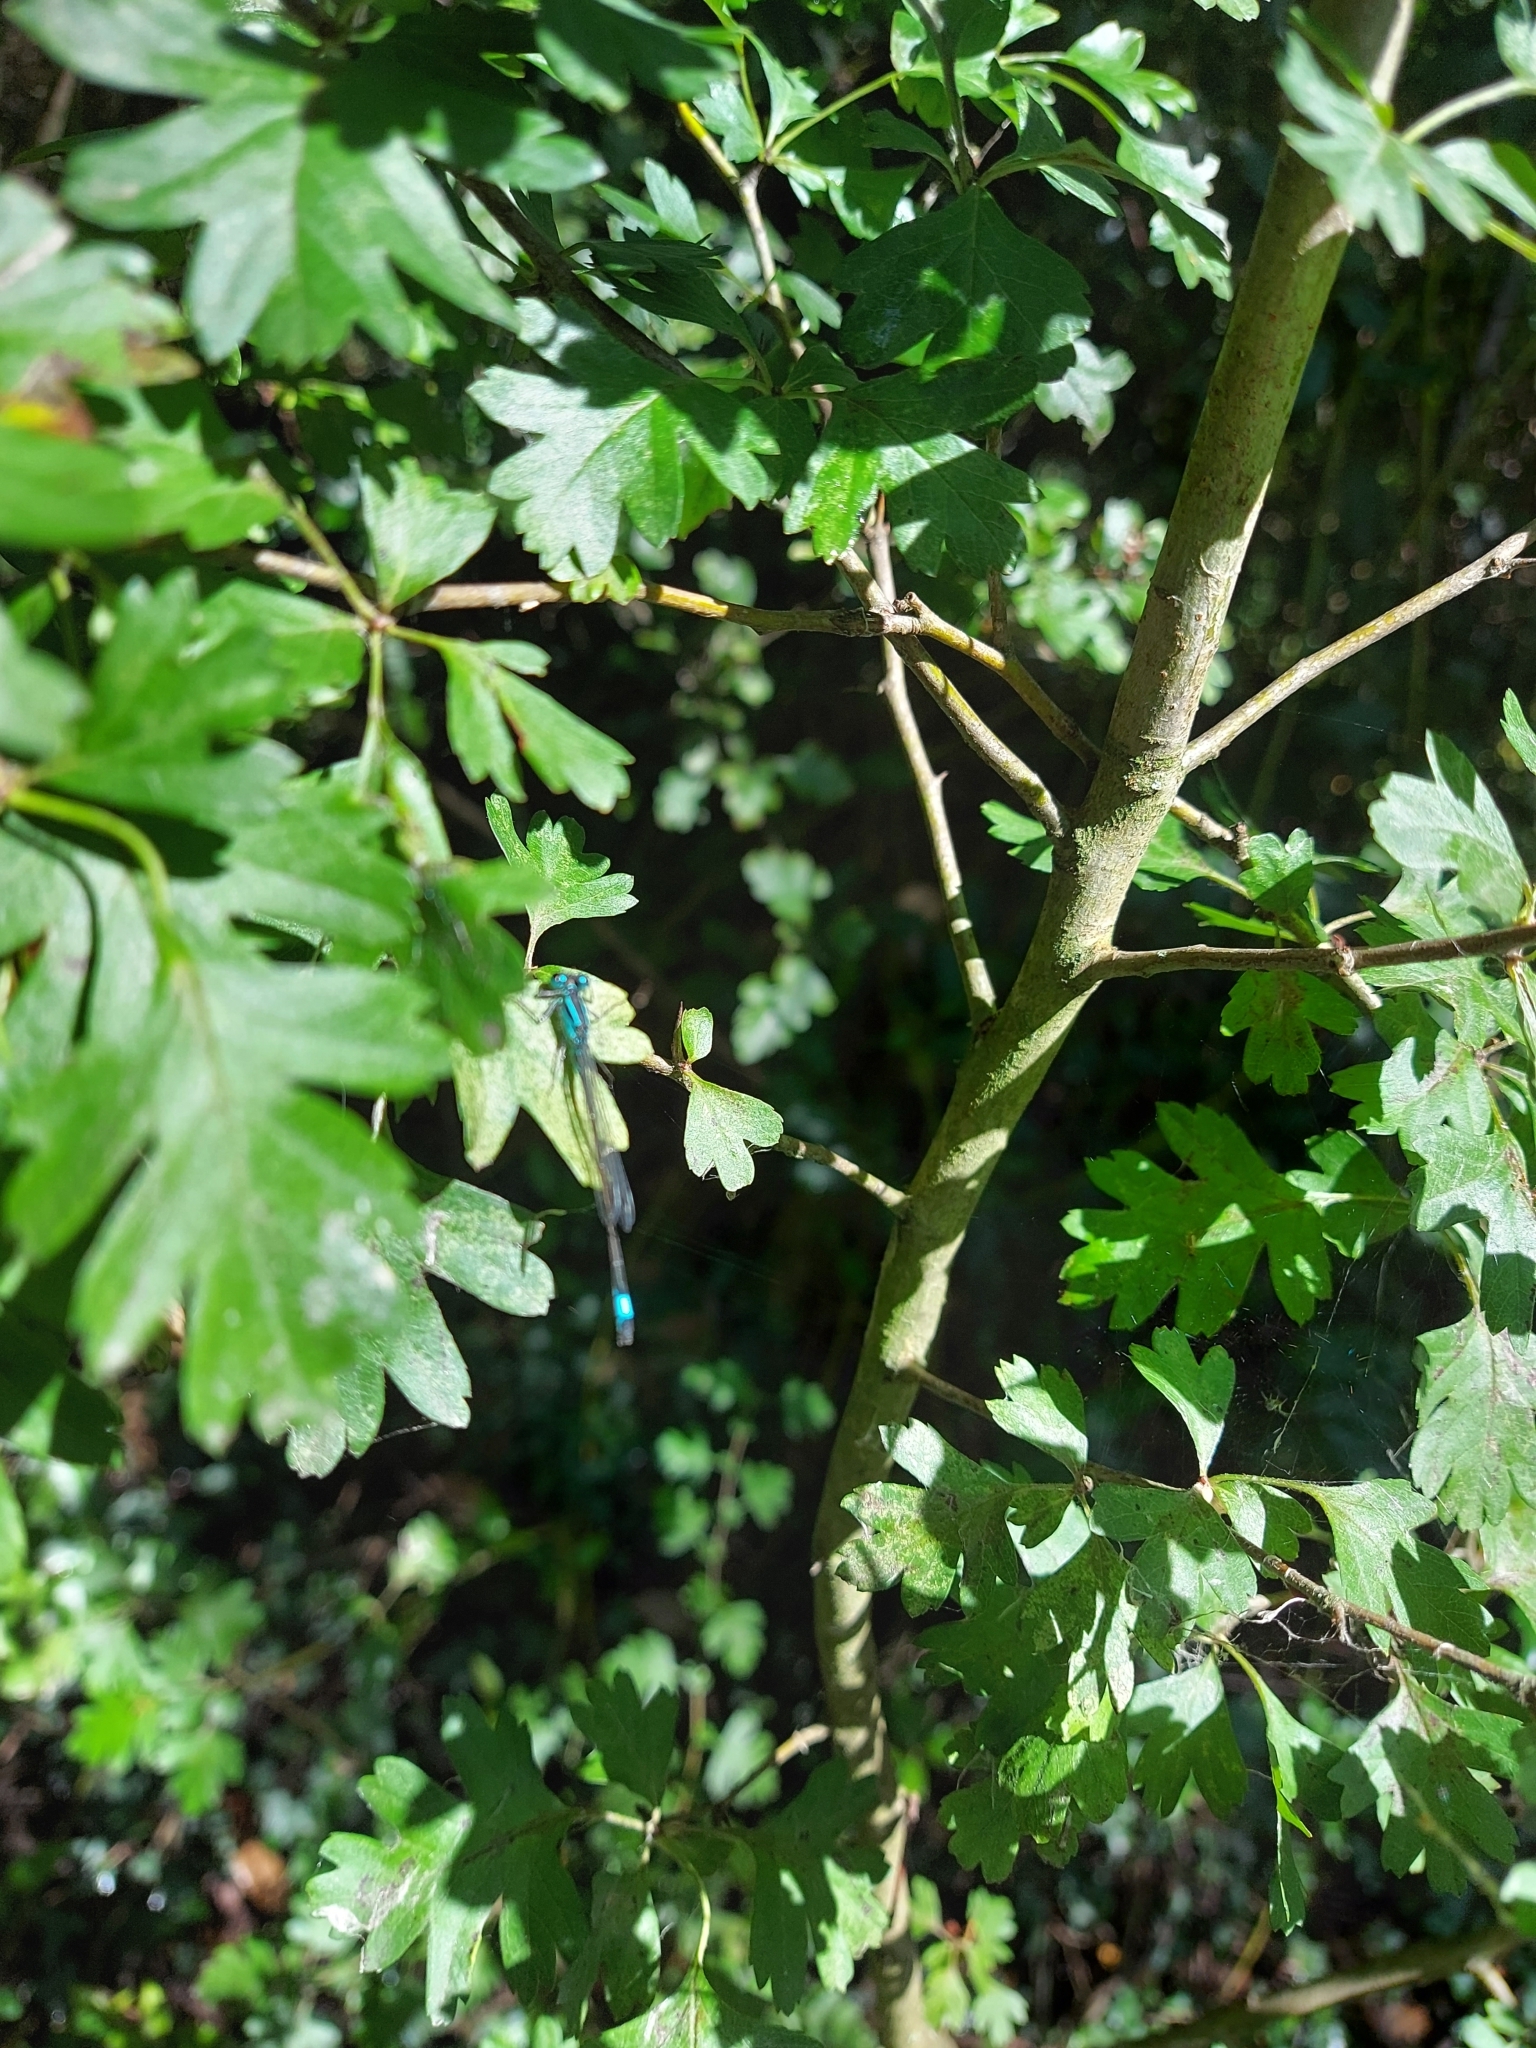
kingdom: Animalia
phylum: Arthropoda
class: Insecta
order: Diptera
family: Syrphidae
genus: Myathropa
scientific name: Myathropa florea
